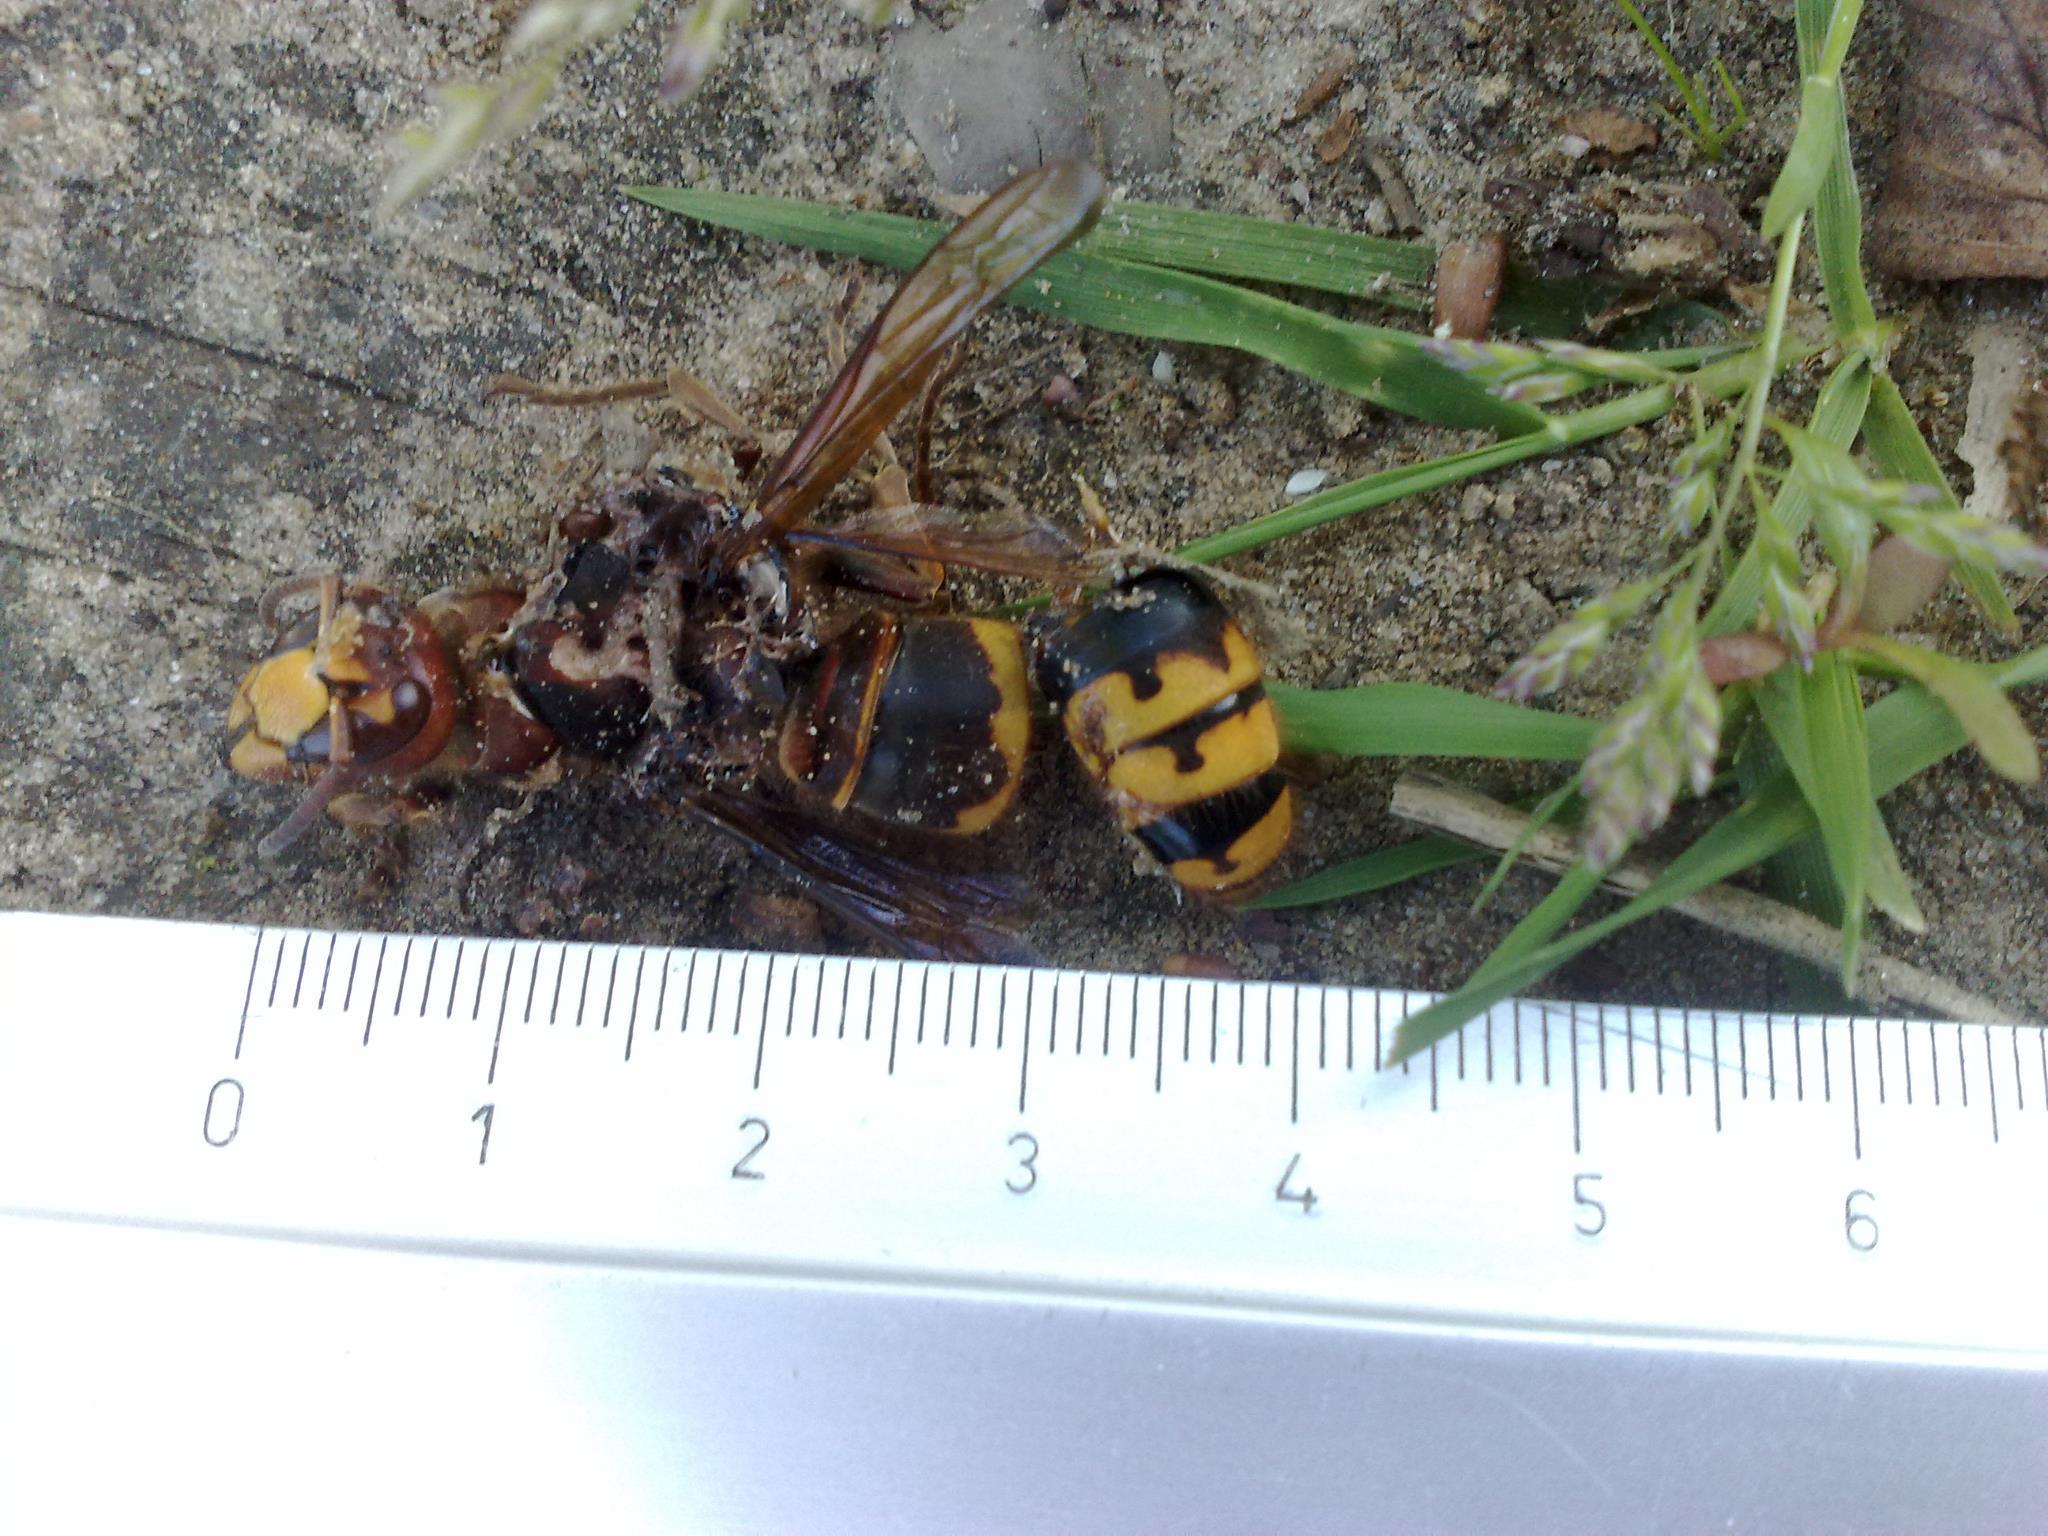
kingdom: Animalia
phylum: Arthropoda
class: Insecta
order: Hymenoptera
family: Vespidae
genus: Vespa
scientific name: Vespa crabro
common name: Hornet
